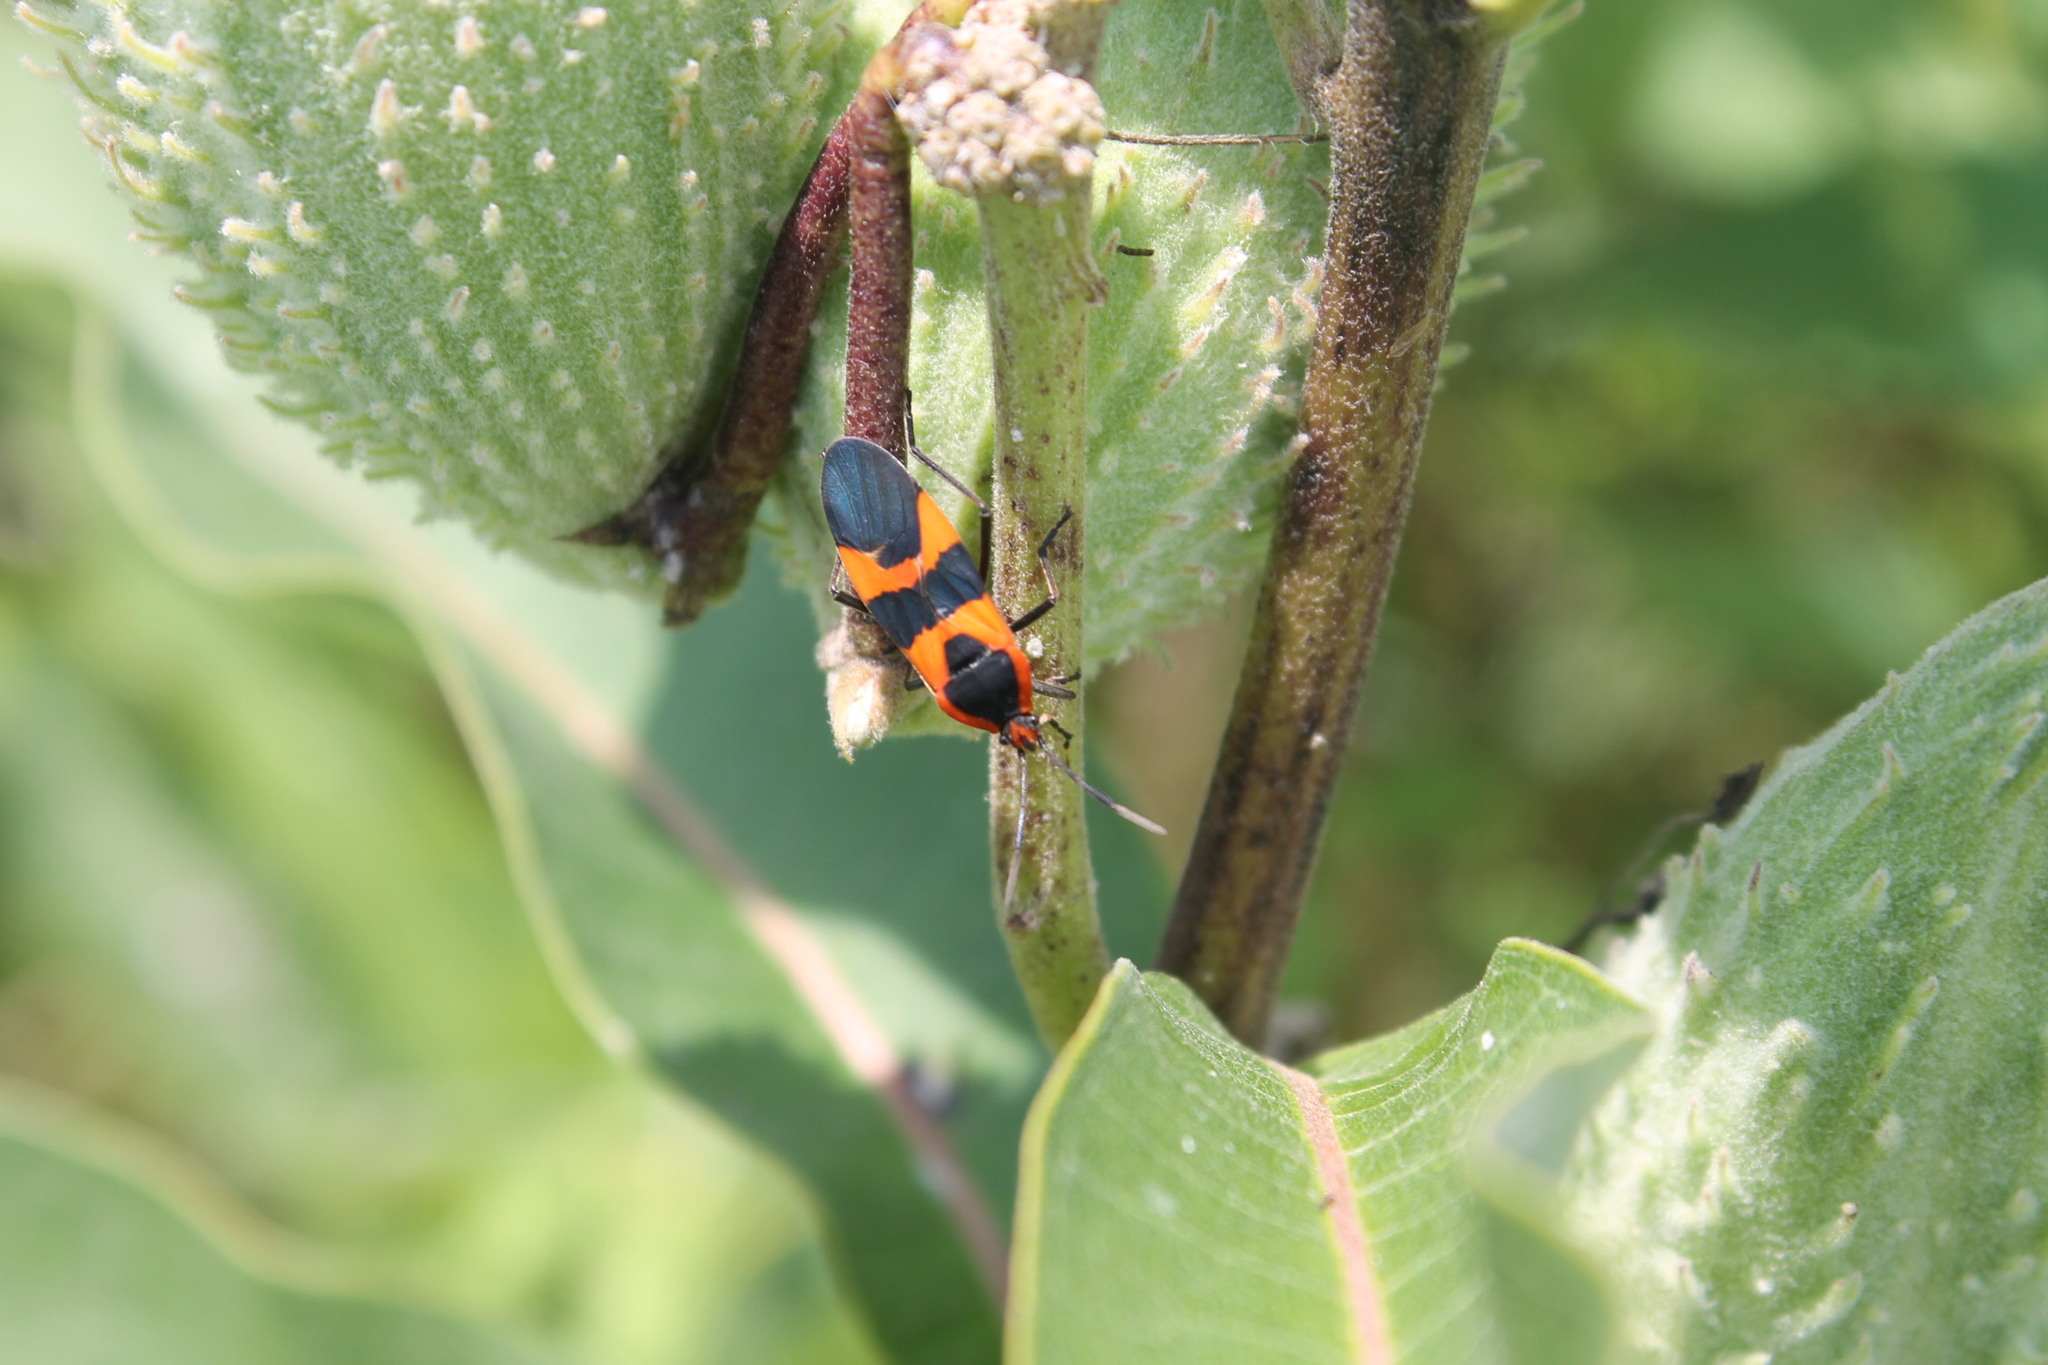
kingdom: Animalia
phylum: Arthropoda
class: Insecta
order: Hemiptera
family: Lygaeidae
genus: Oncopeltus
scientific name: Oncopeltus fasciatus
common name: Large milkweed bug
